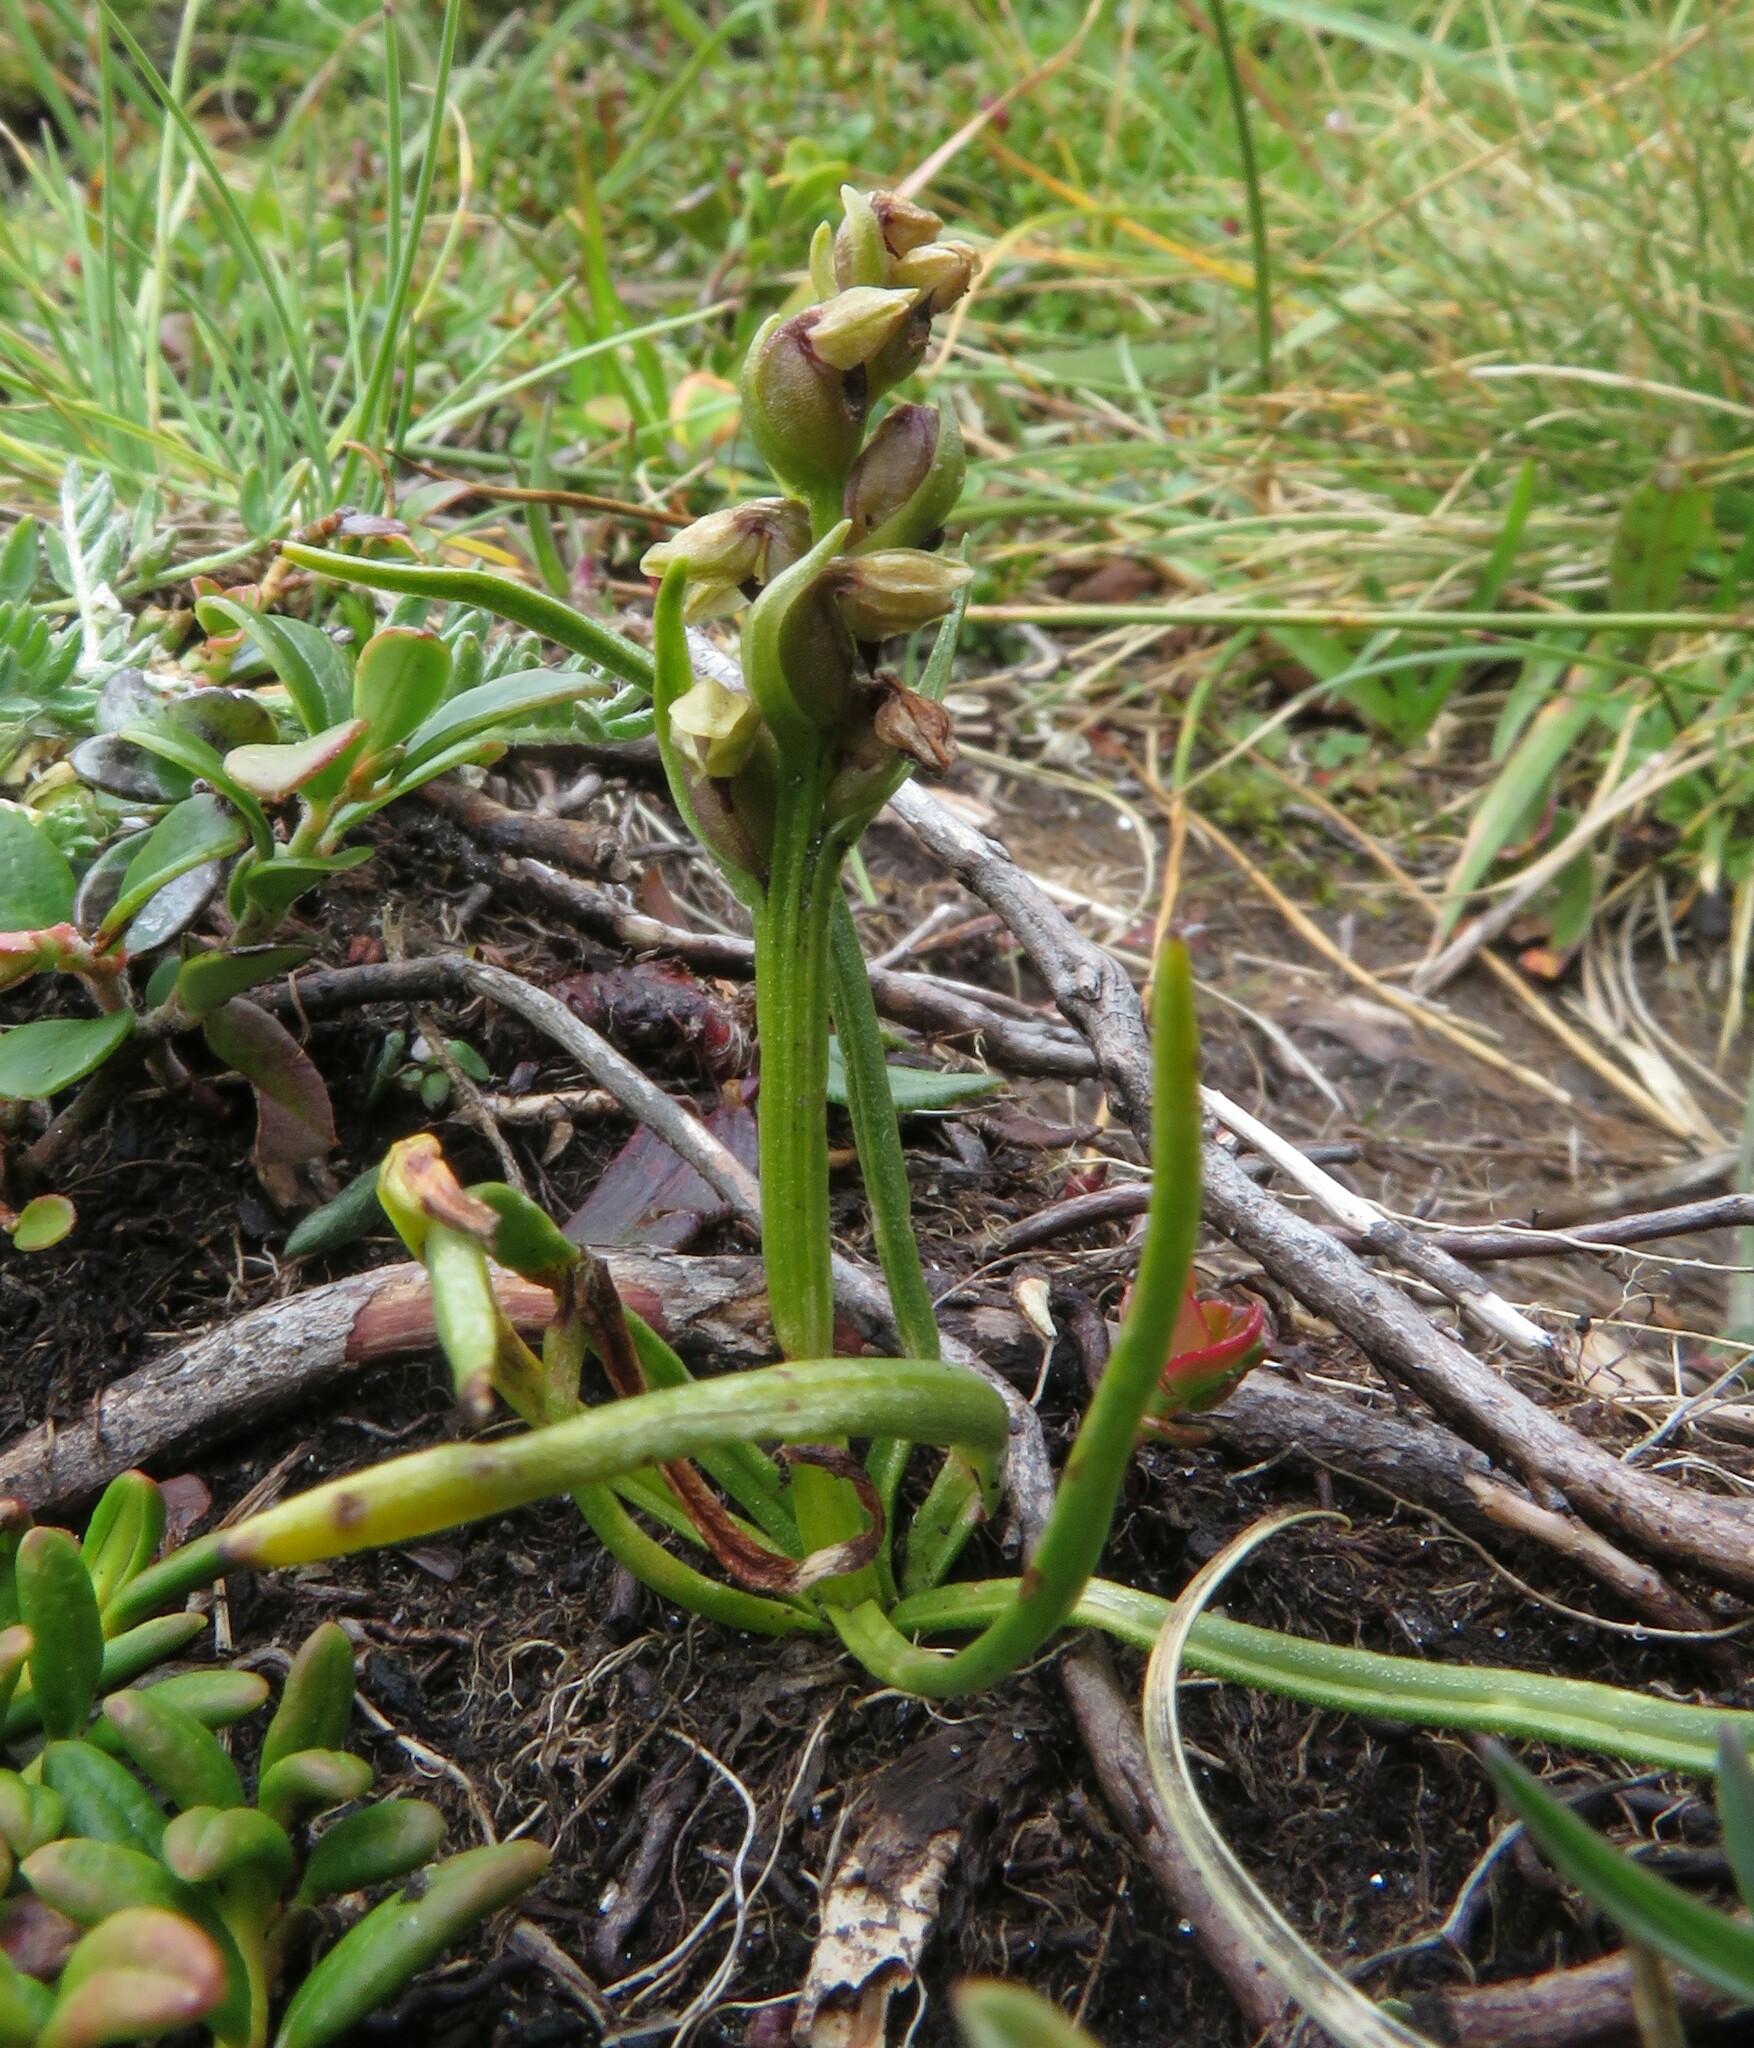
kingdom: Plantae
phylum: Tracheophyta
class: Liliopsida
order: Asparagales
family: Orchidaceae
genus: Chamorchis
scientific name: Chamorchis alpina
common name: Alpine chamorchis
